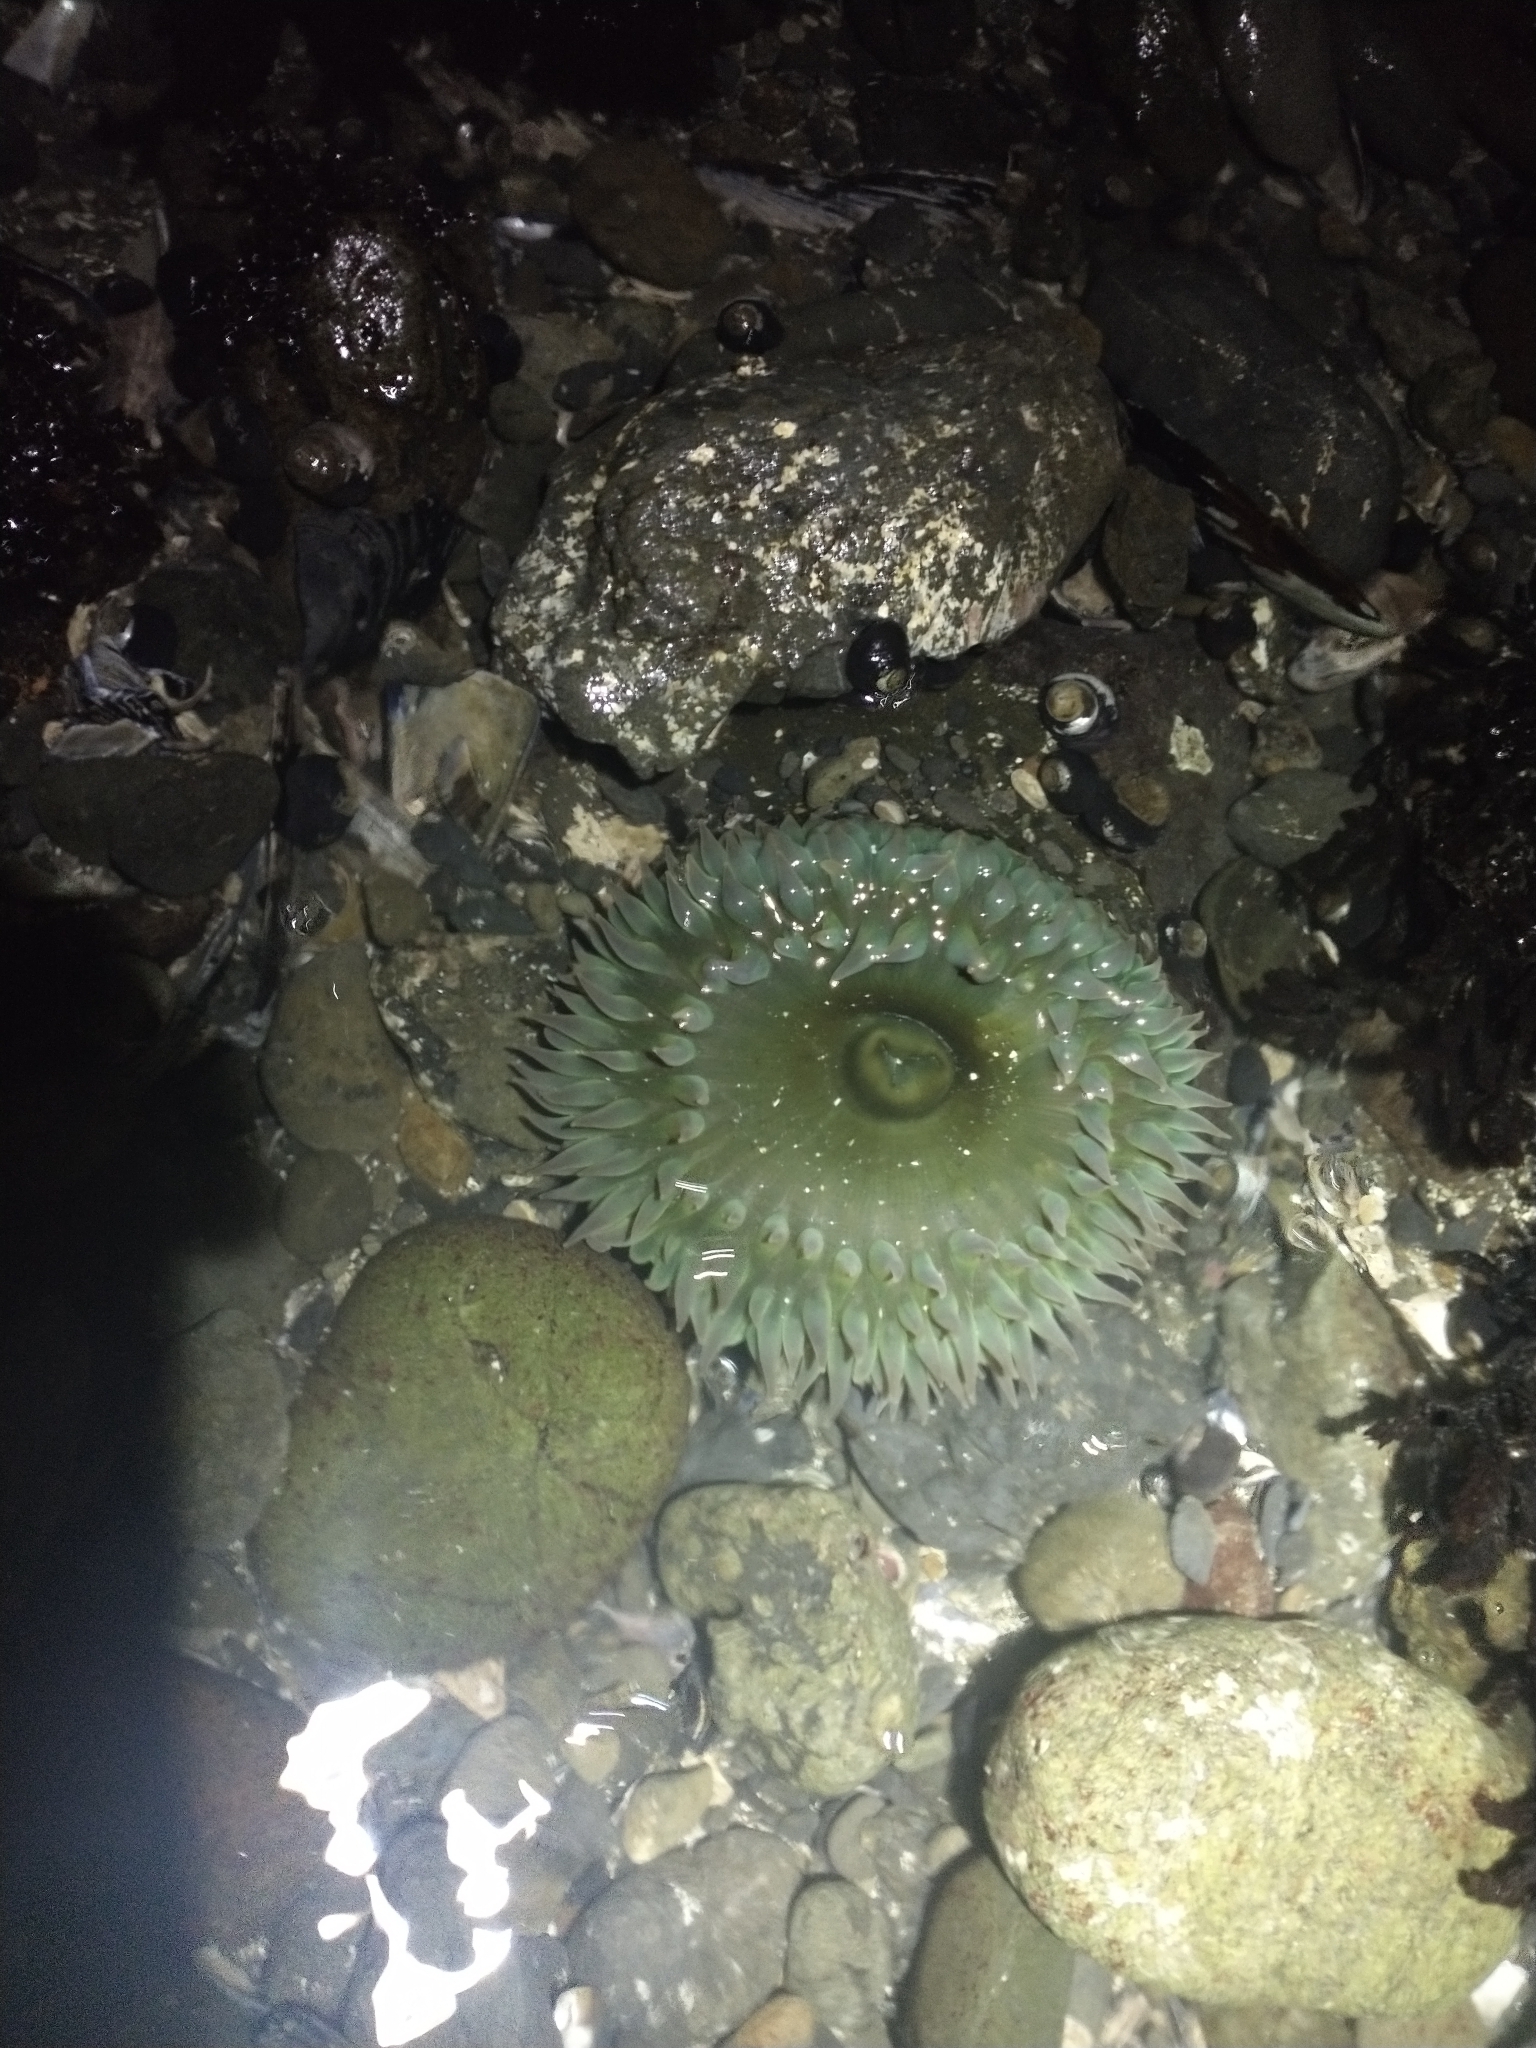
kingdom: Animalia
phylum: Cnidaria
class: Anthozoa
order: Actiniaria
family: Actiniidae
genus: Anthopleura
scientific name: Anthopleura xanthogrammica
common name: Giant green anemone
